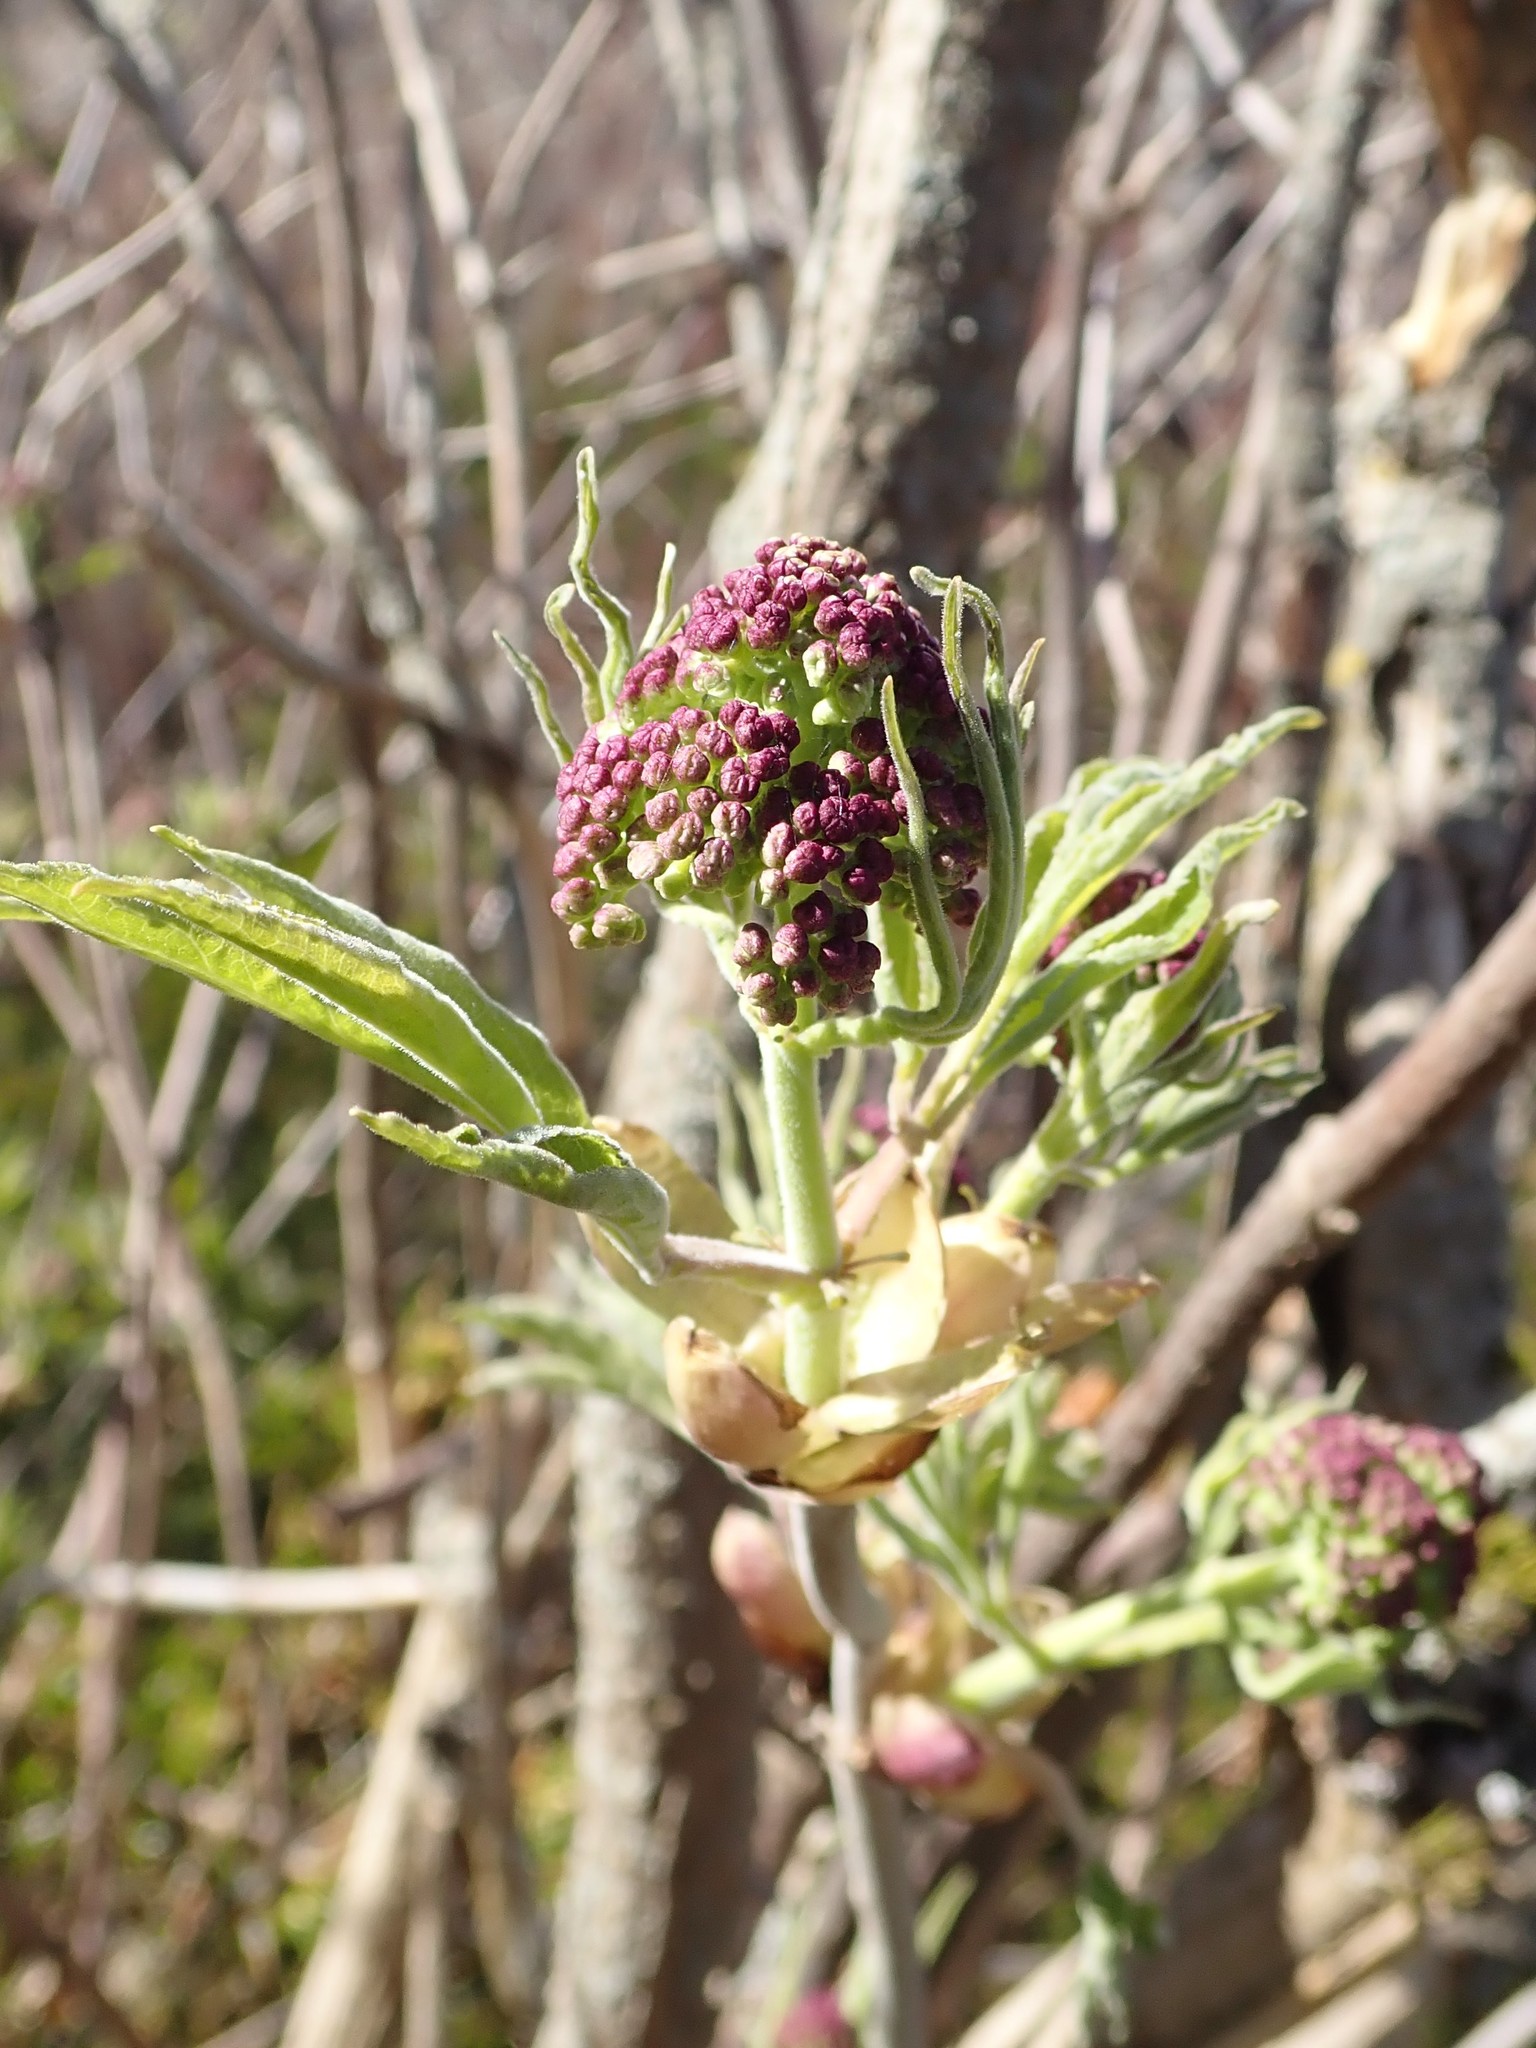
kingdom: Plantae
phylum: Tracheophyta
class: Magnoliopsida
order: Dipsacales
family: Viburnaceae
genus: Sambucus
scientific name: Sambucus racemosa
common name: Red-berried elder
